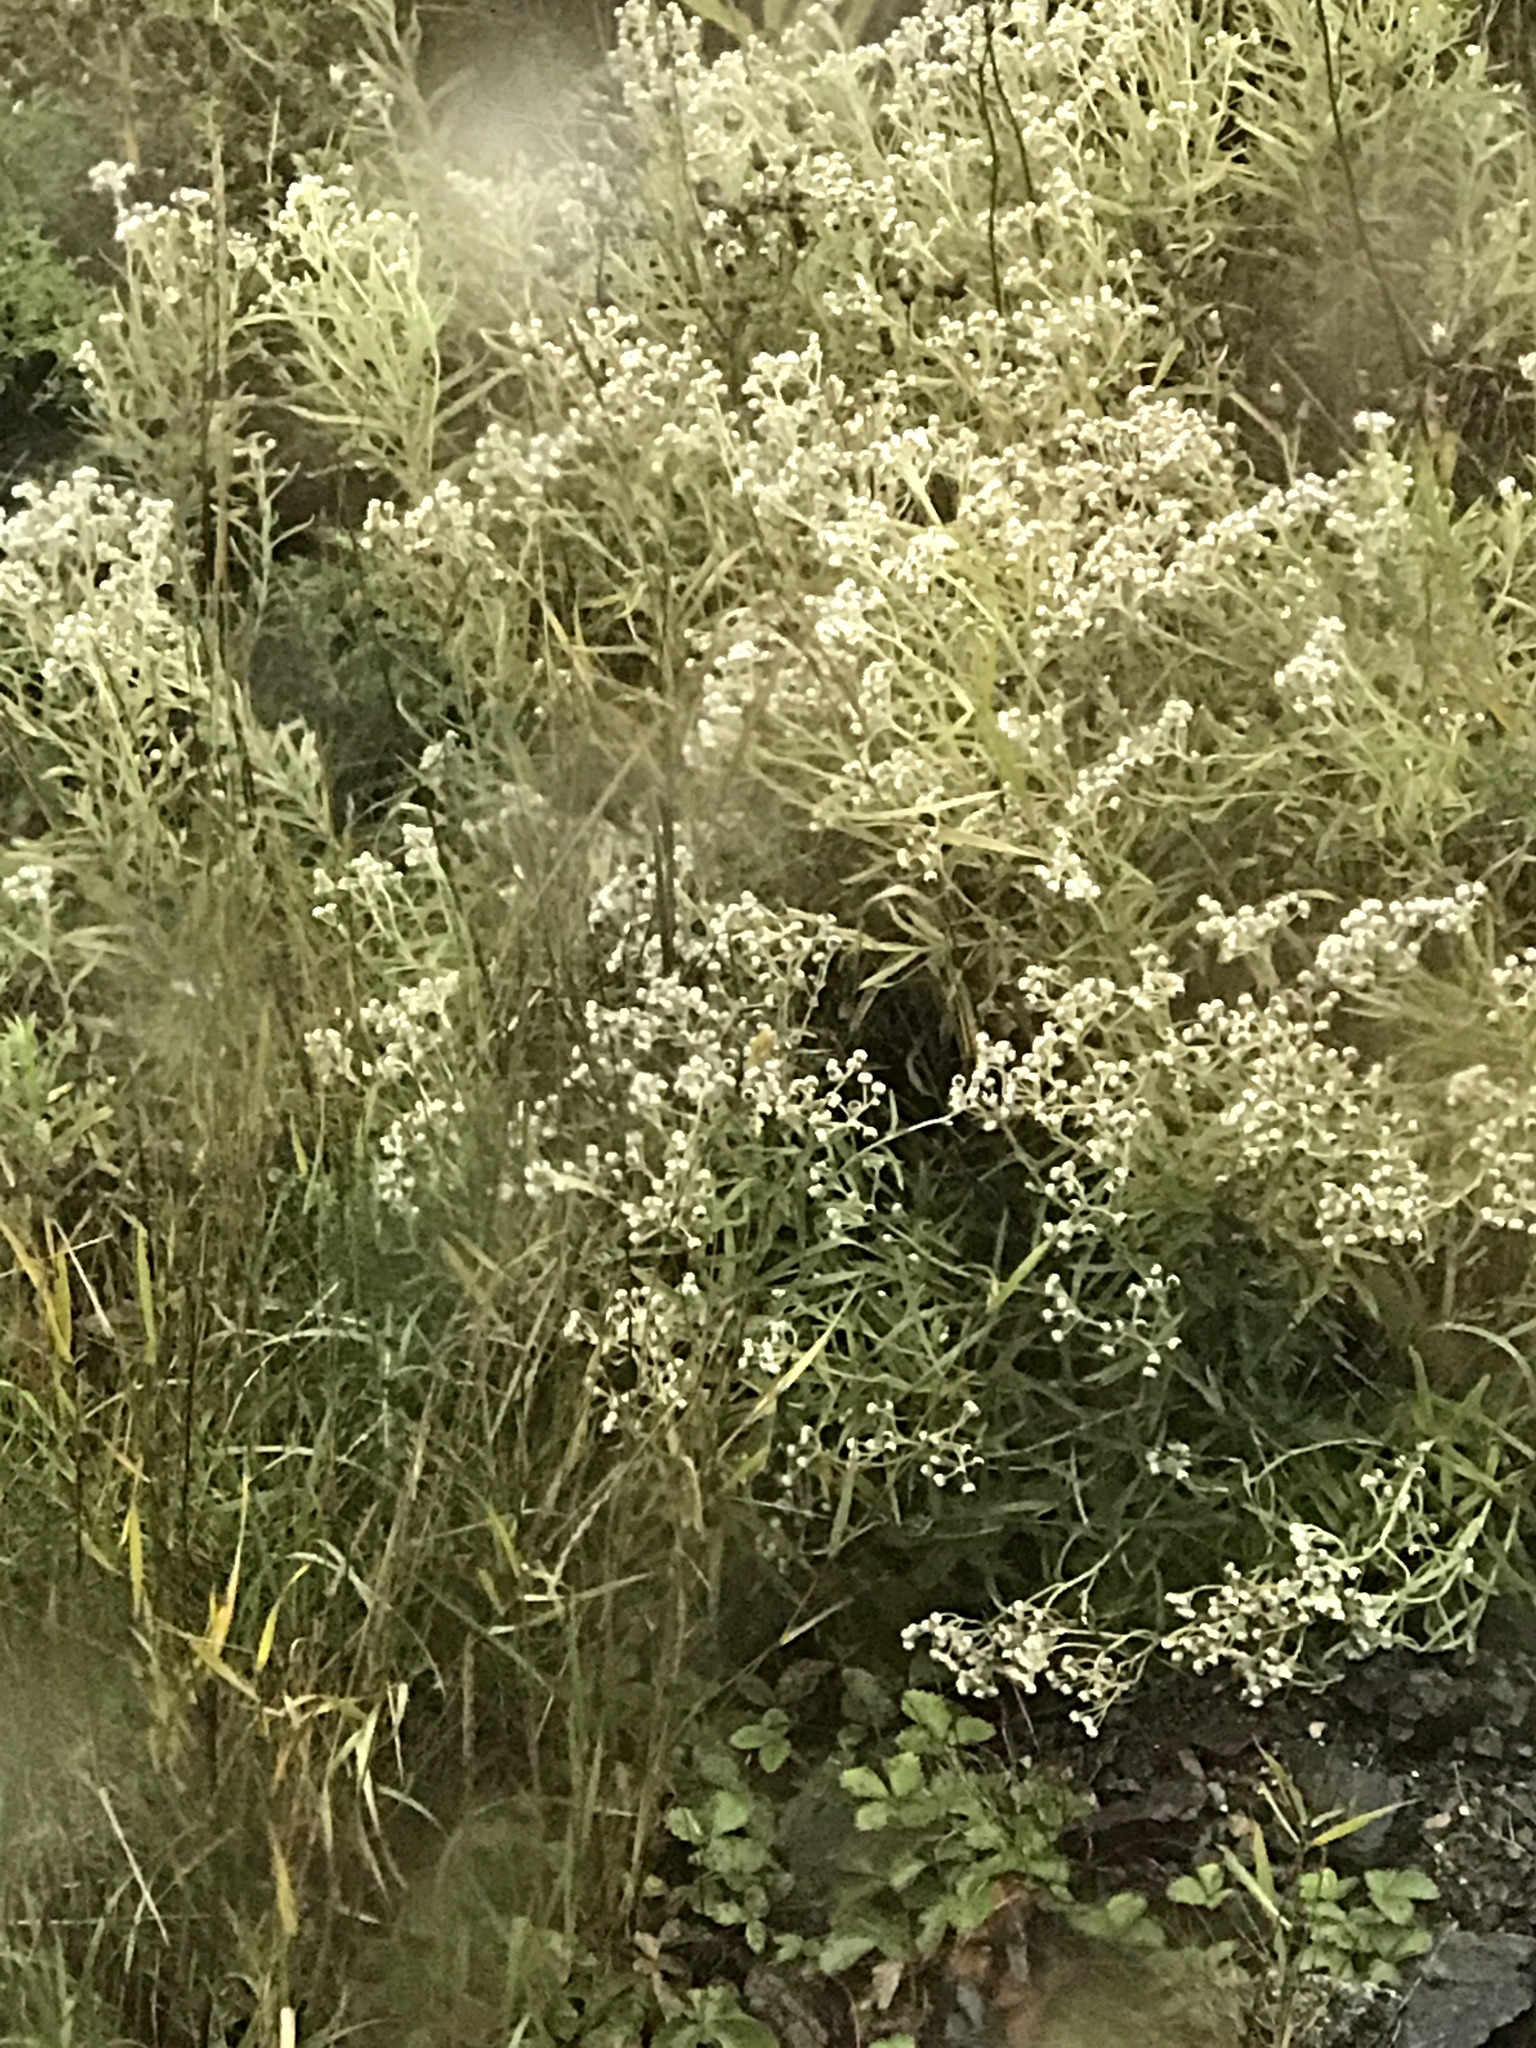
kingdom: Plantae
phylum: Tracheophyta
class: Magnoliopsida
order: Asterales
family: Asteraceae
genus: Anaphalis
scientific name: Anaphalis margaritacea
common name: Pearly everlasting
